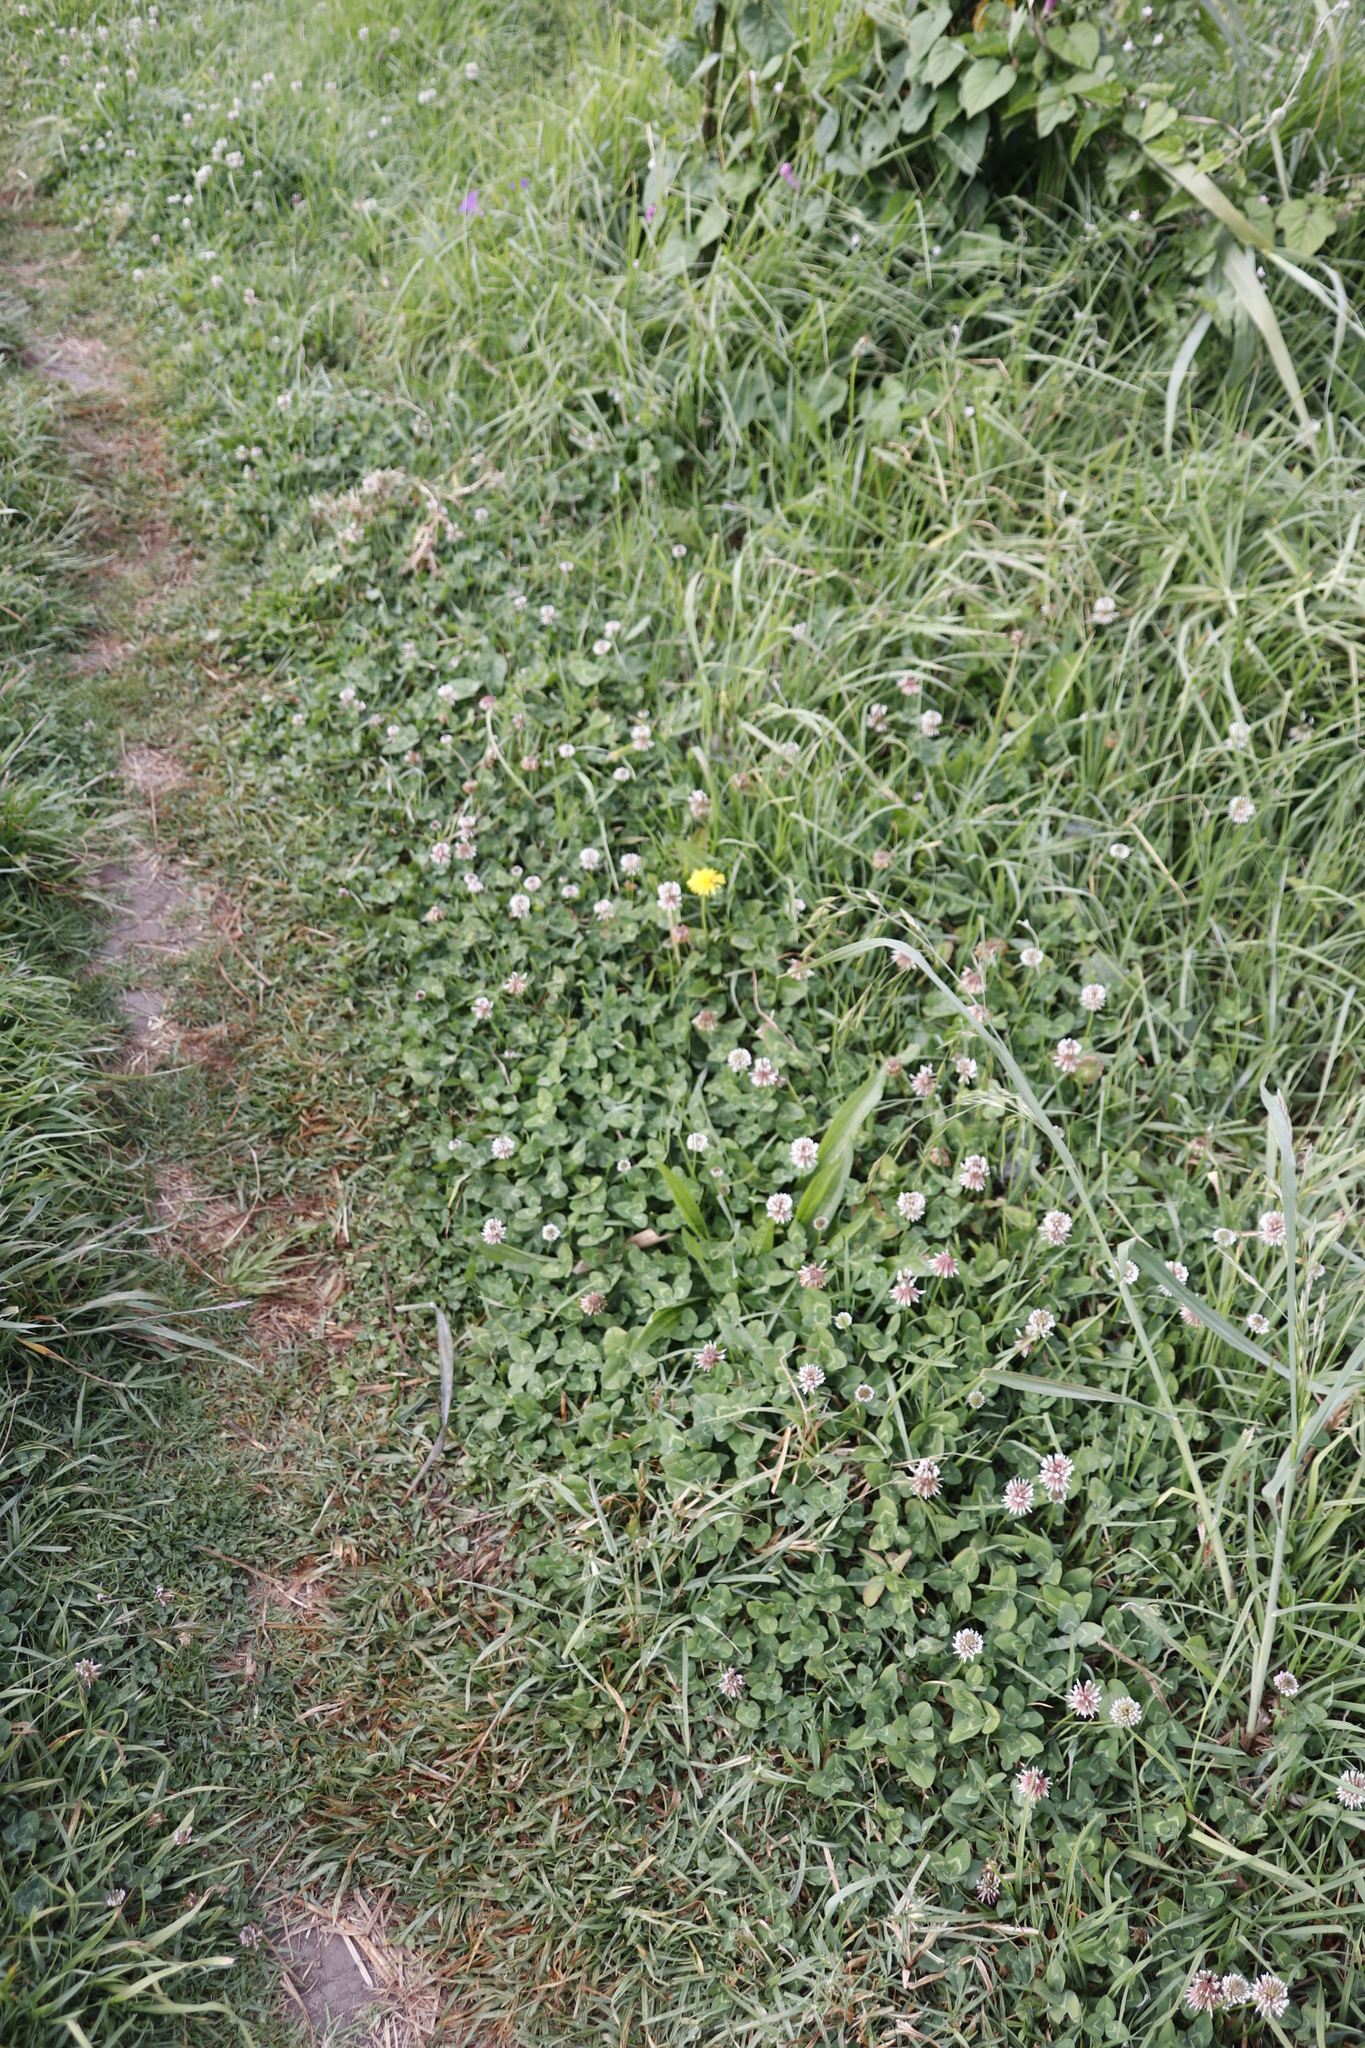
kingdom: Plantae
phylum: Tracheophyta
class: Magnoliopsida
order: Fabales
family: Fabaceae
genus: Trifolium
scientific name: Trifolium repens
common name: White clover
